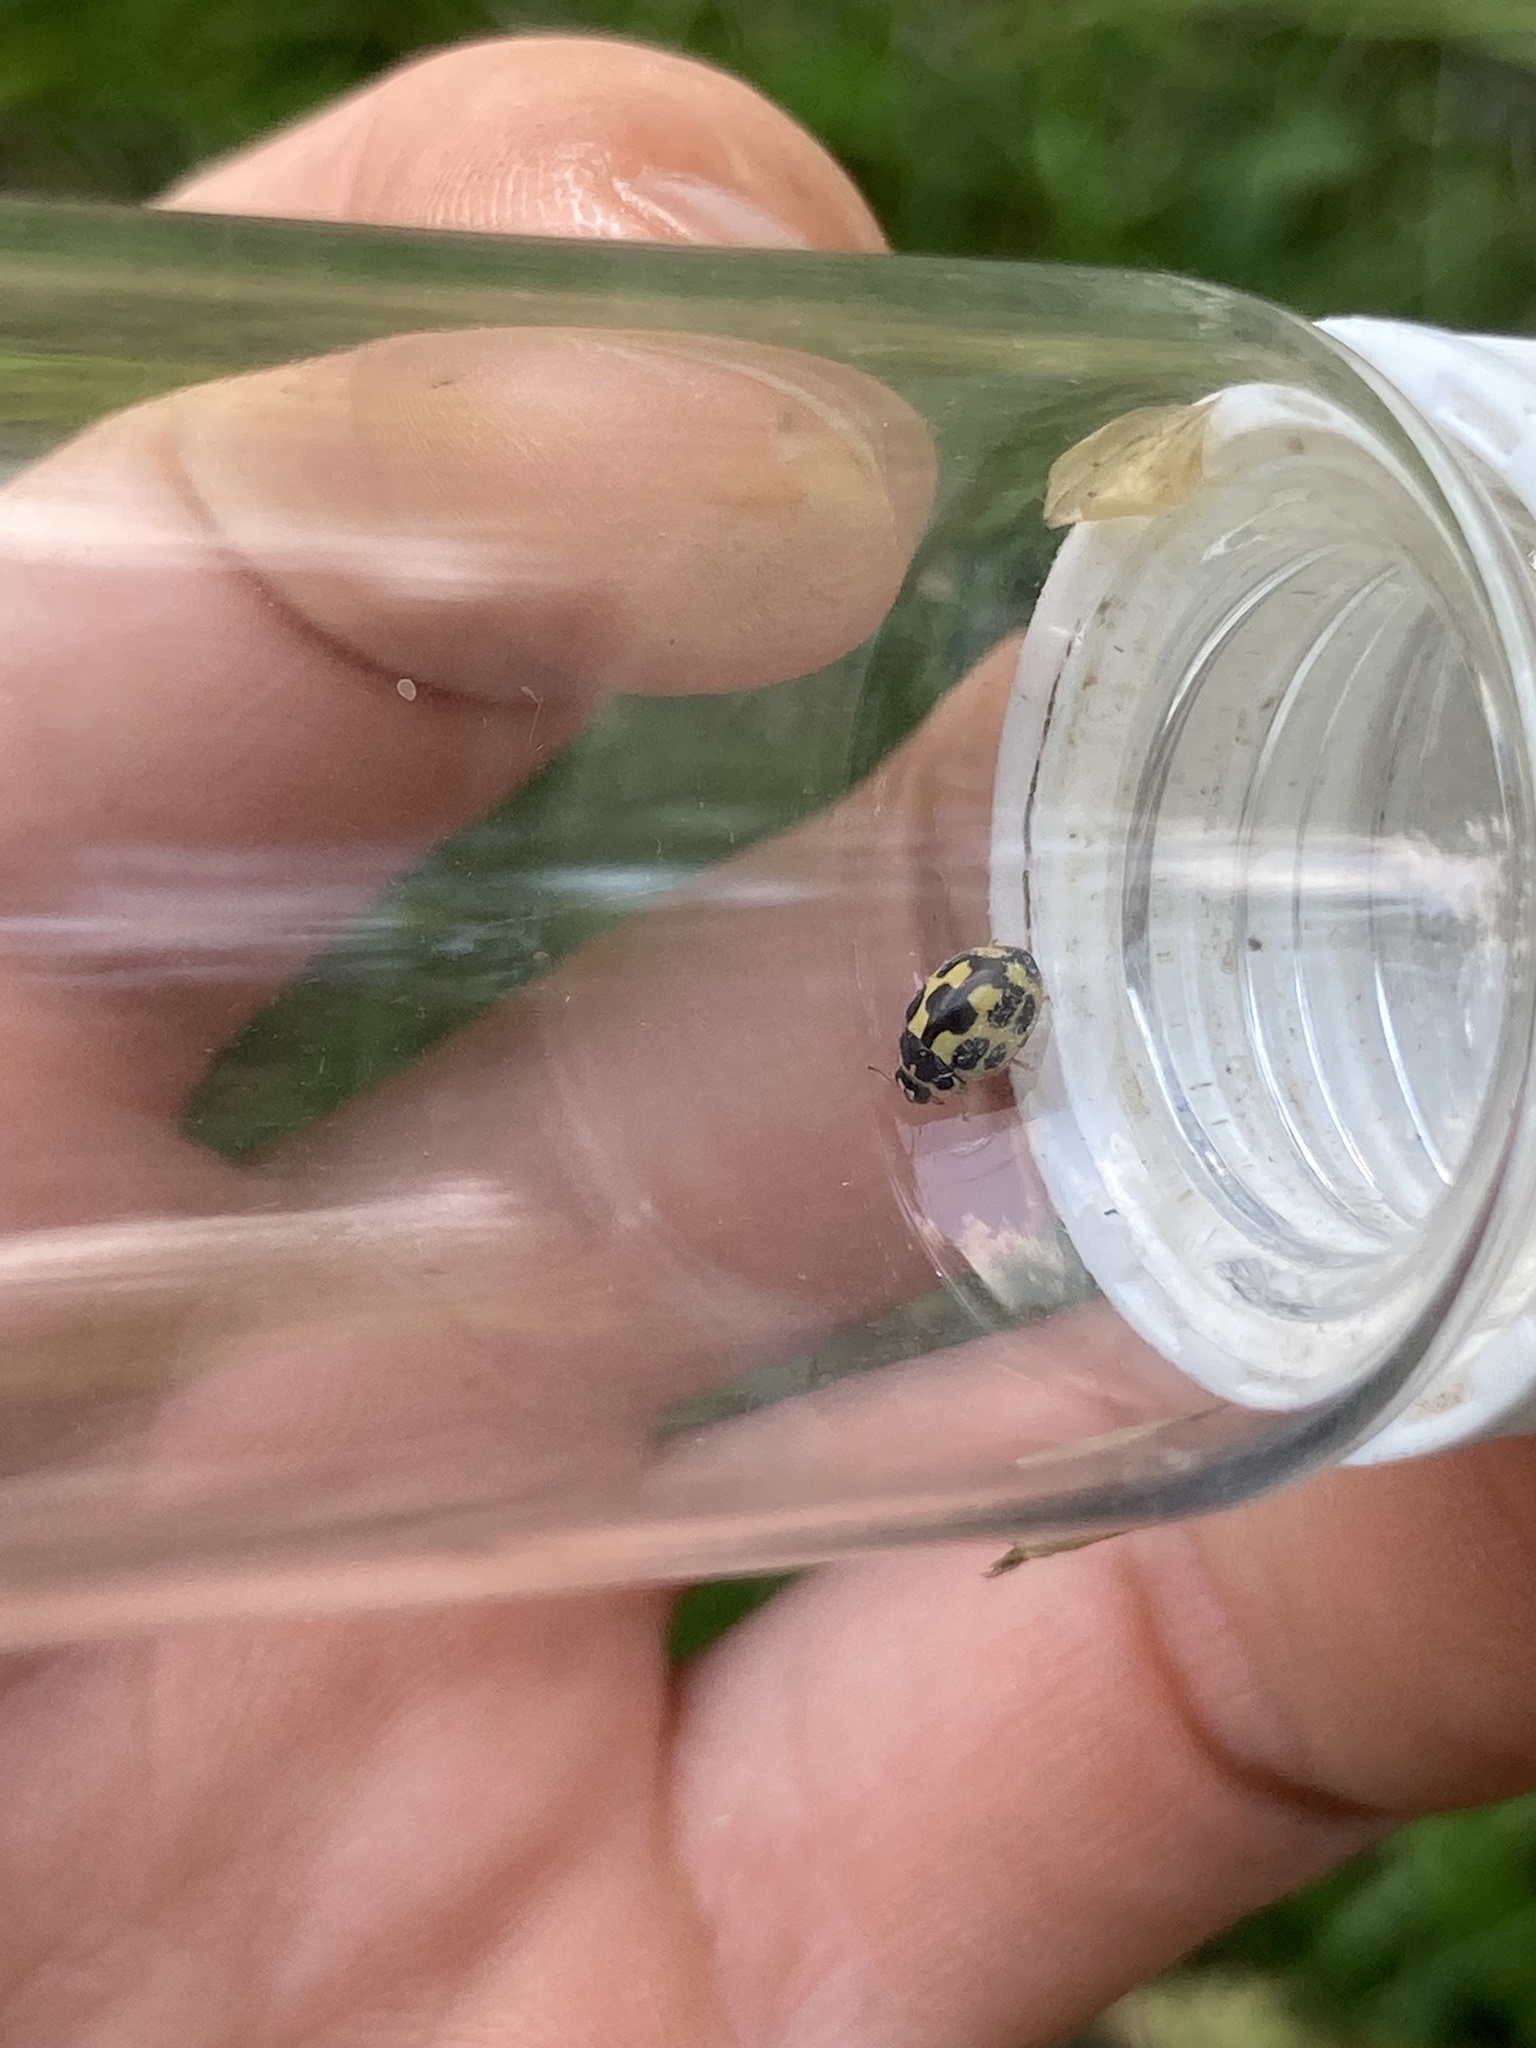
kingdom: Animalia
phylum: Arthropoda
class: Insecta
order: Coleoptera
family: Coccinellidae
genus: Propylaea
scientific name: Propylaea quatuordecimpunctata
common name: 14-spotted ladybird beetle
